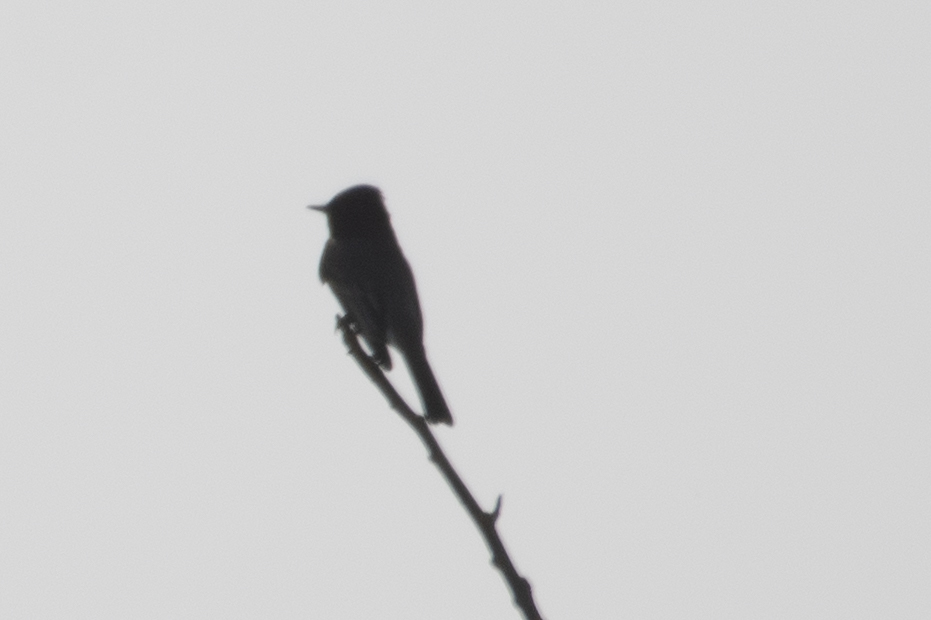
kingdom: Animalia
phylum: Chordata
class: Aves
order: Passeriformes
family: Tyrannidae
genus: Sayornis
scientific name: Sayornis nigricans
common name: Black phoebe
